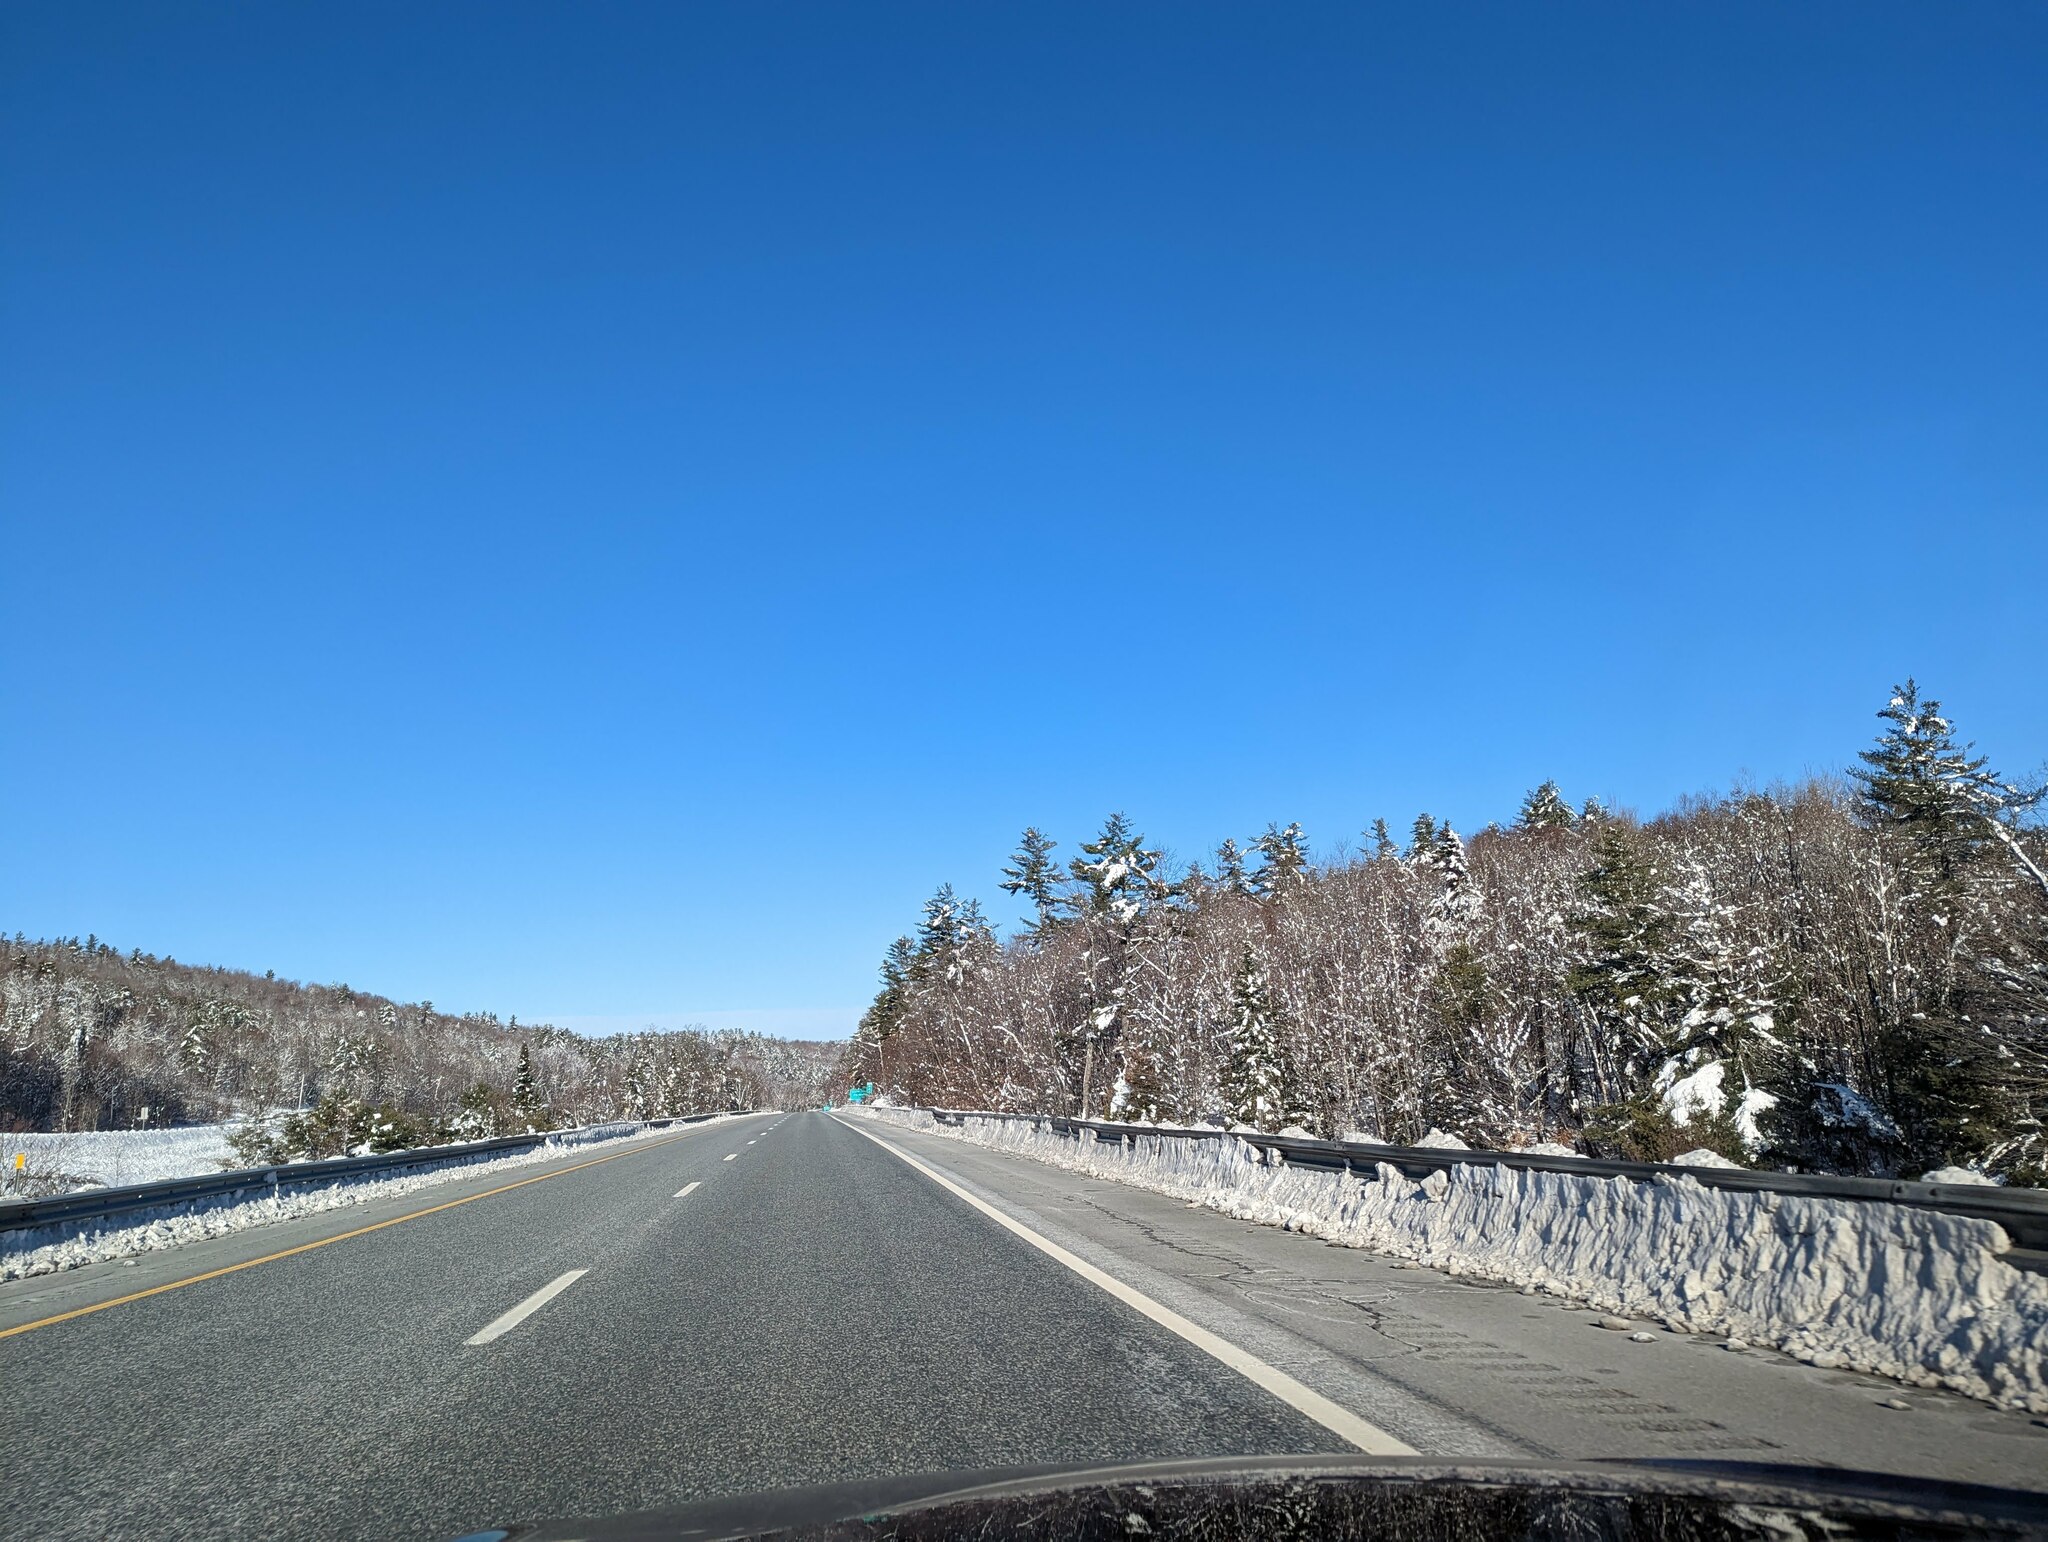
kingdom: Plantae
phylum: Tracheophyta
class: Pinopsida
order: Pinales
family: Pinaceae
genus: Pinus
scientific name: Pinus strobus
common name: Weymouth pine
